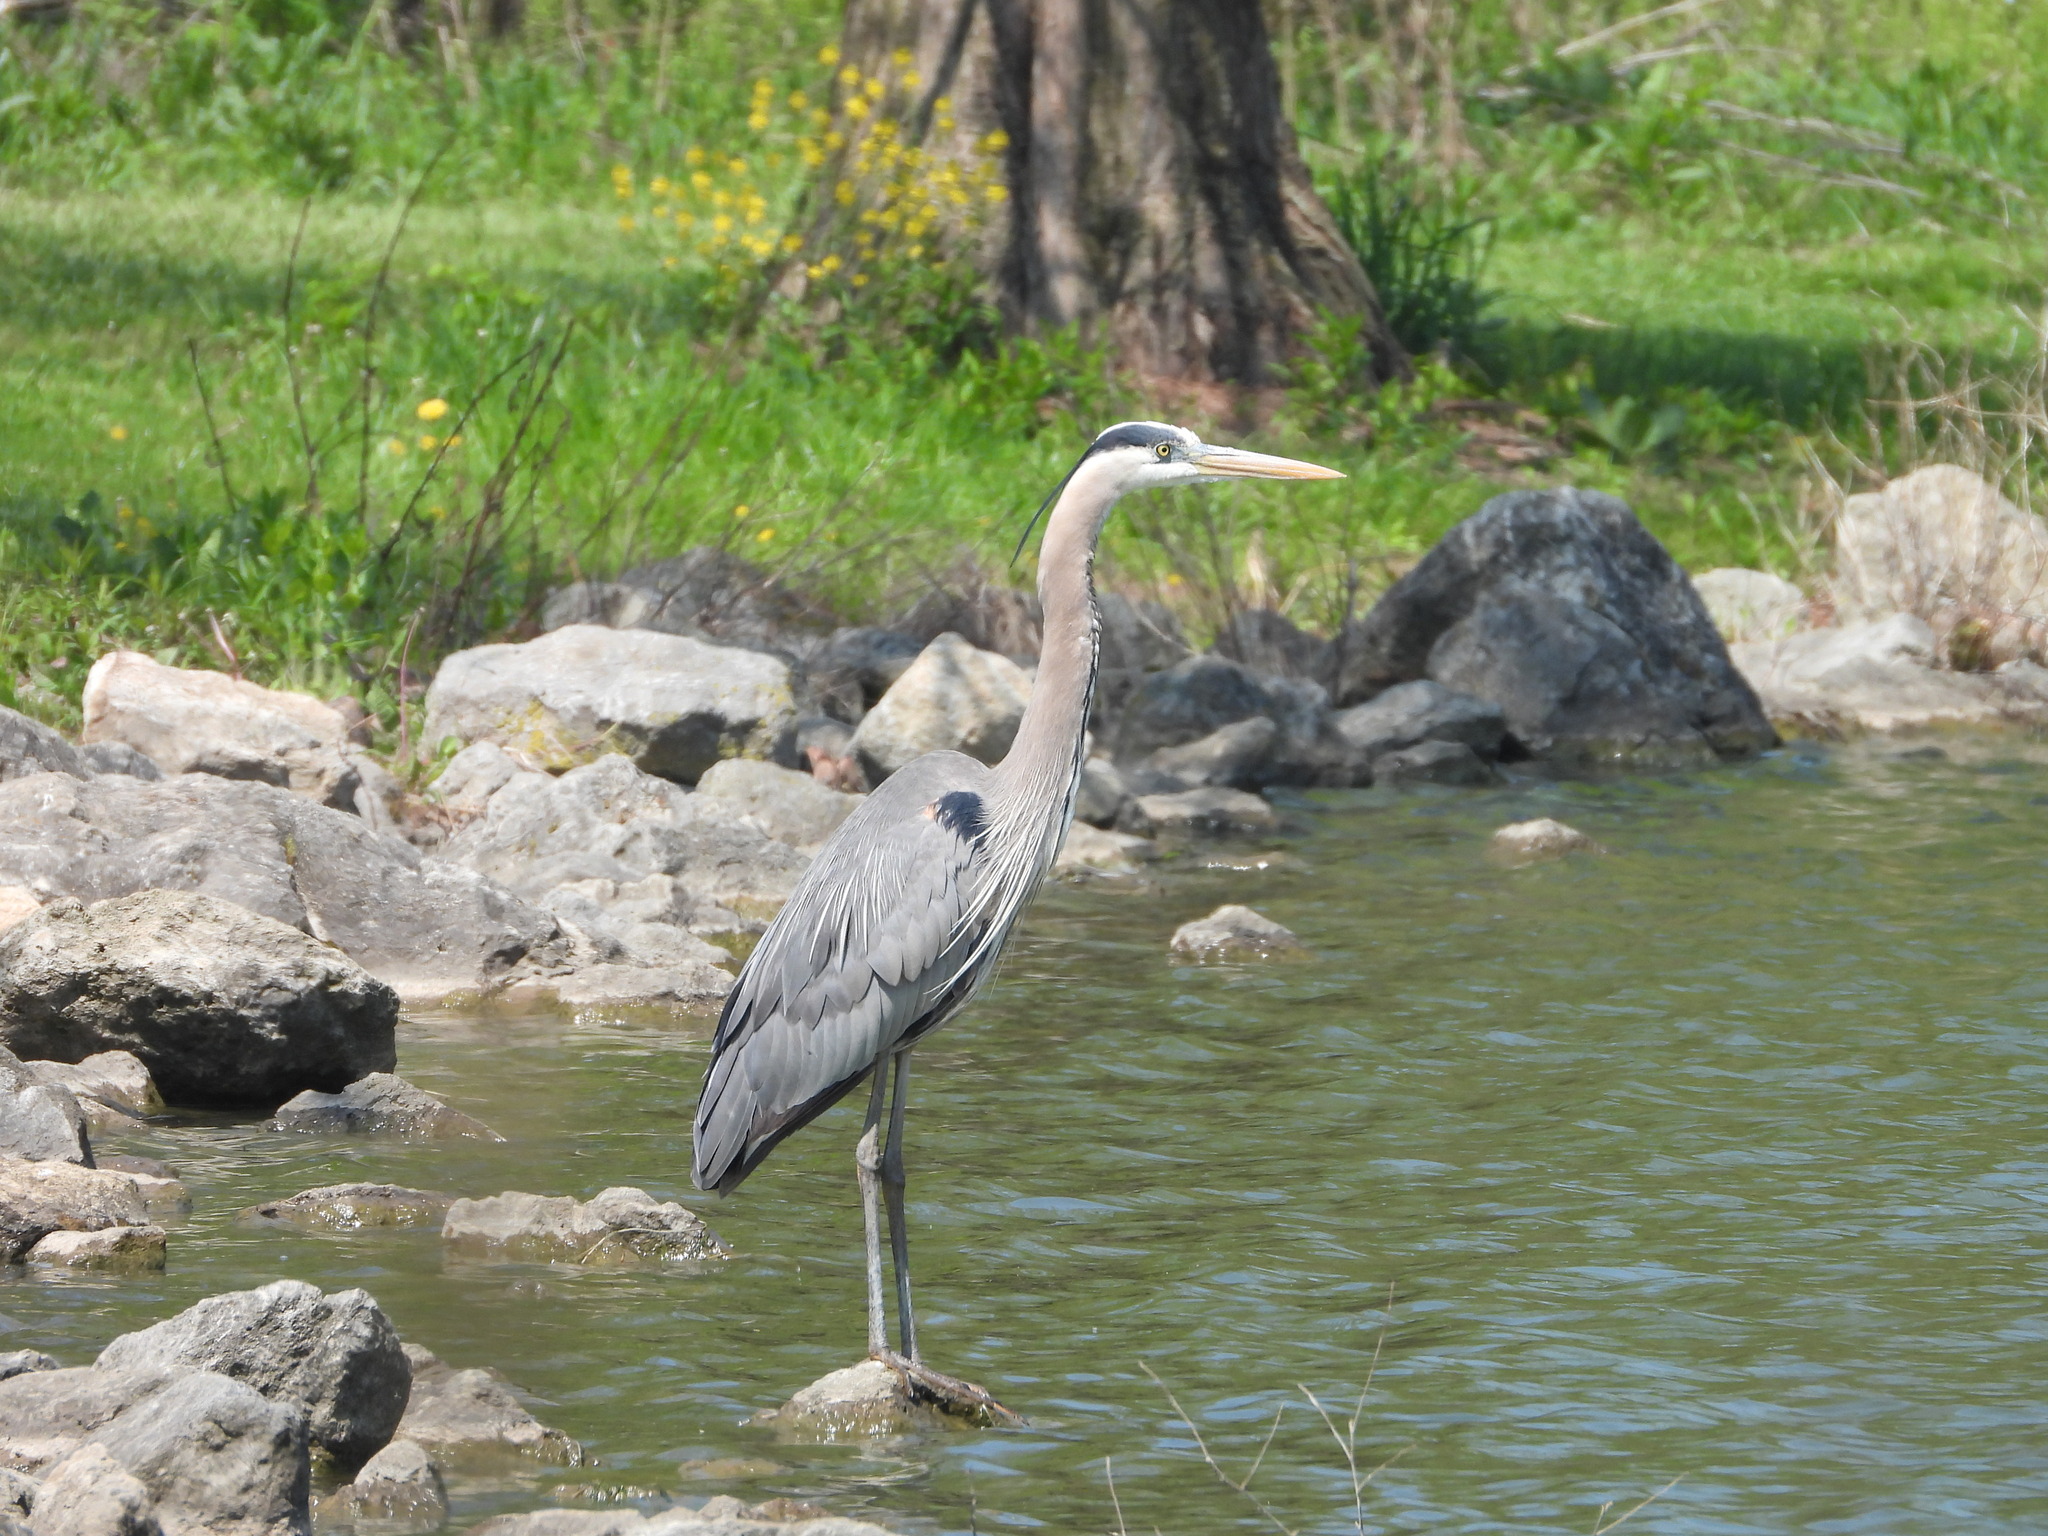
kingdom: Animalia
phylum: Chordata
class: Aves
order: Pelecaniformes
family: Ardeidae
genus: Ardea
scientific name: Ardea herodias
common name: Great blue heron
